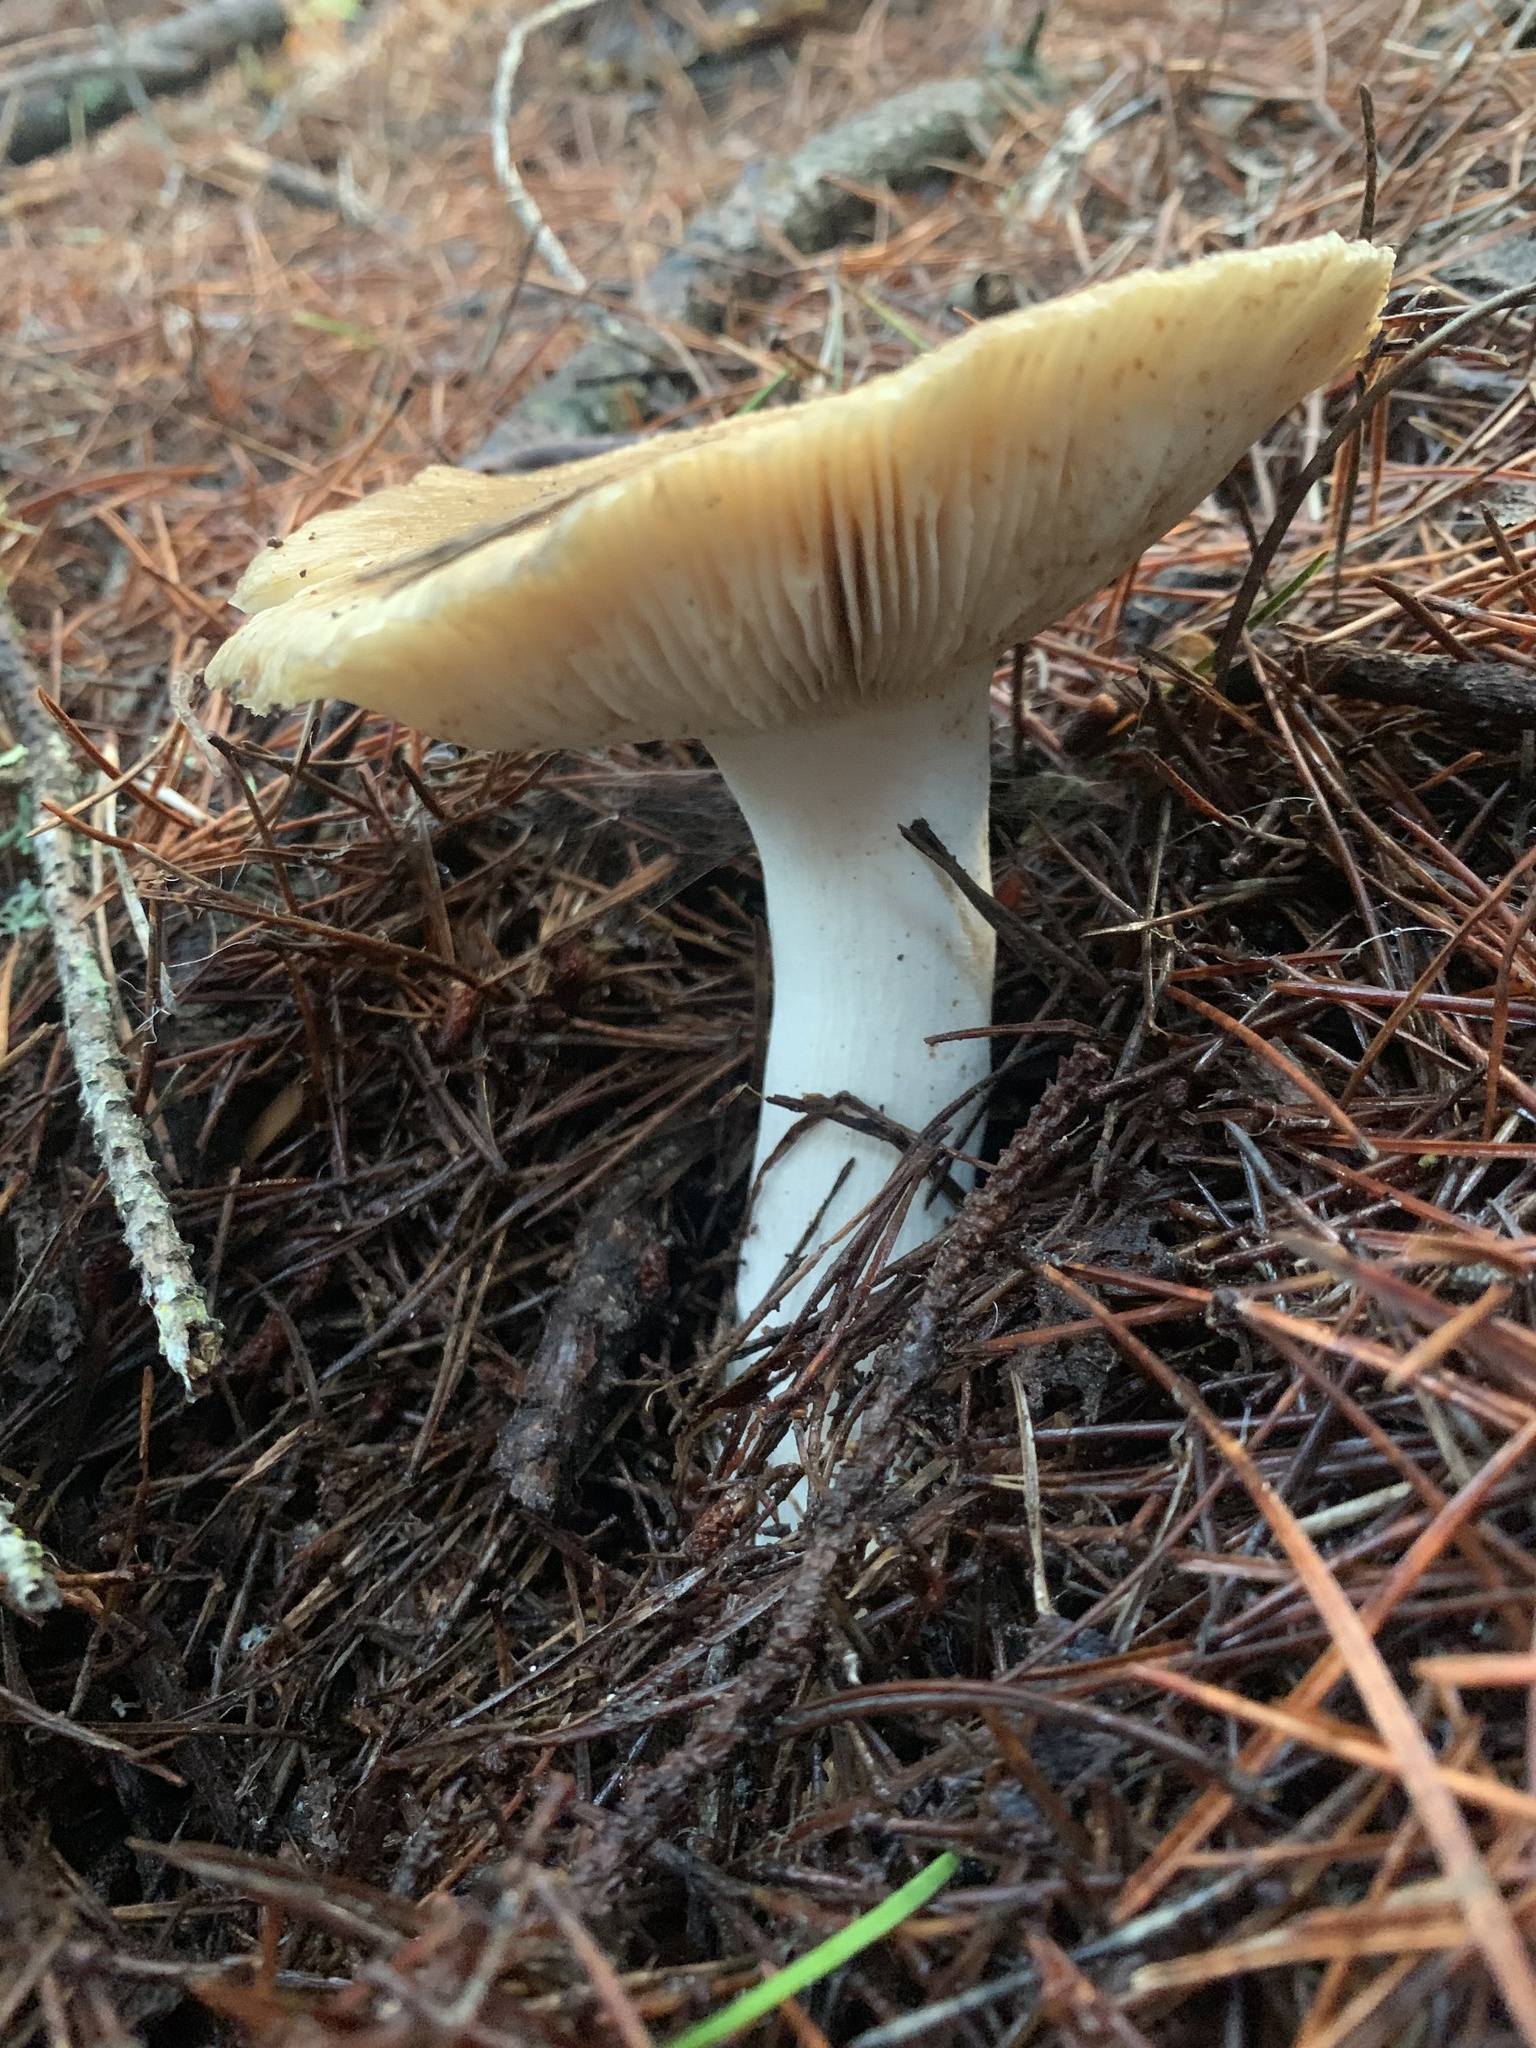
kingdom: Fungi
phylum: Basidiomycota
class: Agaricomycetes
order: Russulales
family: Russulaceae
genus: Russula
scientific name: Russula cerolens
